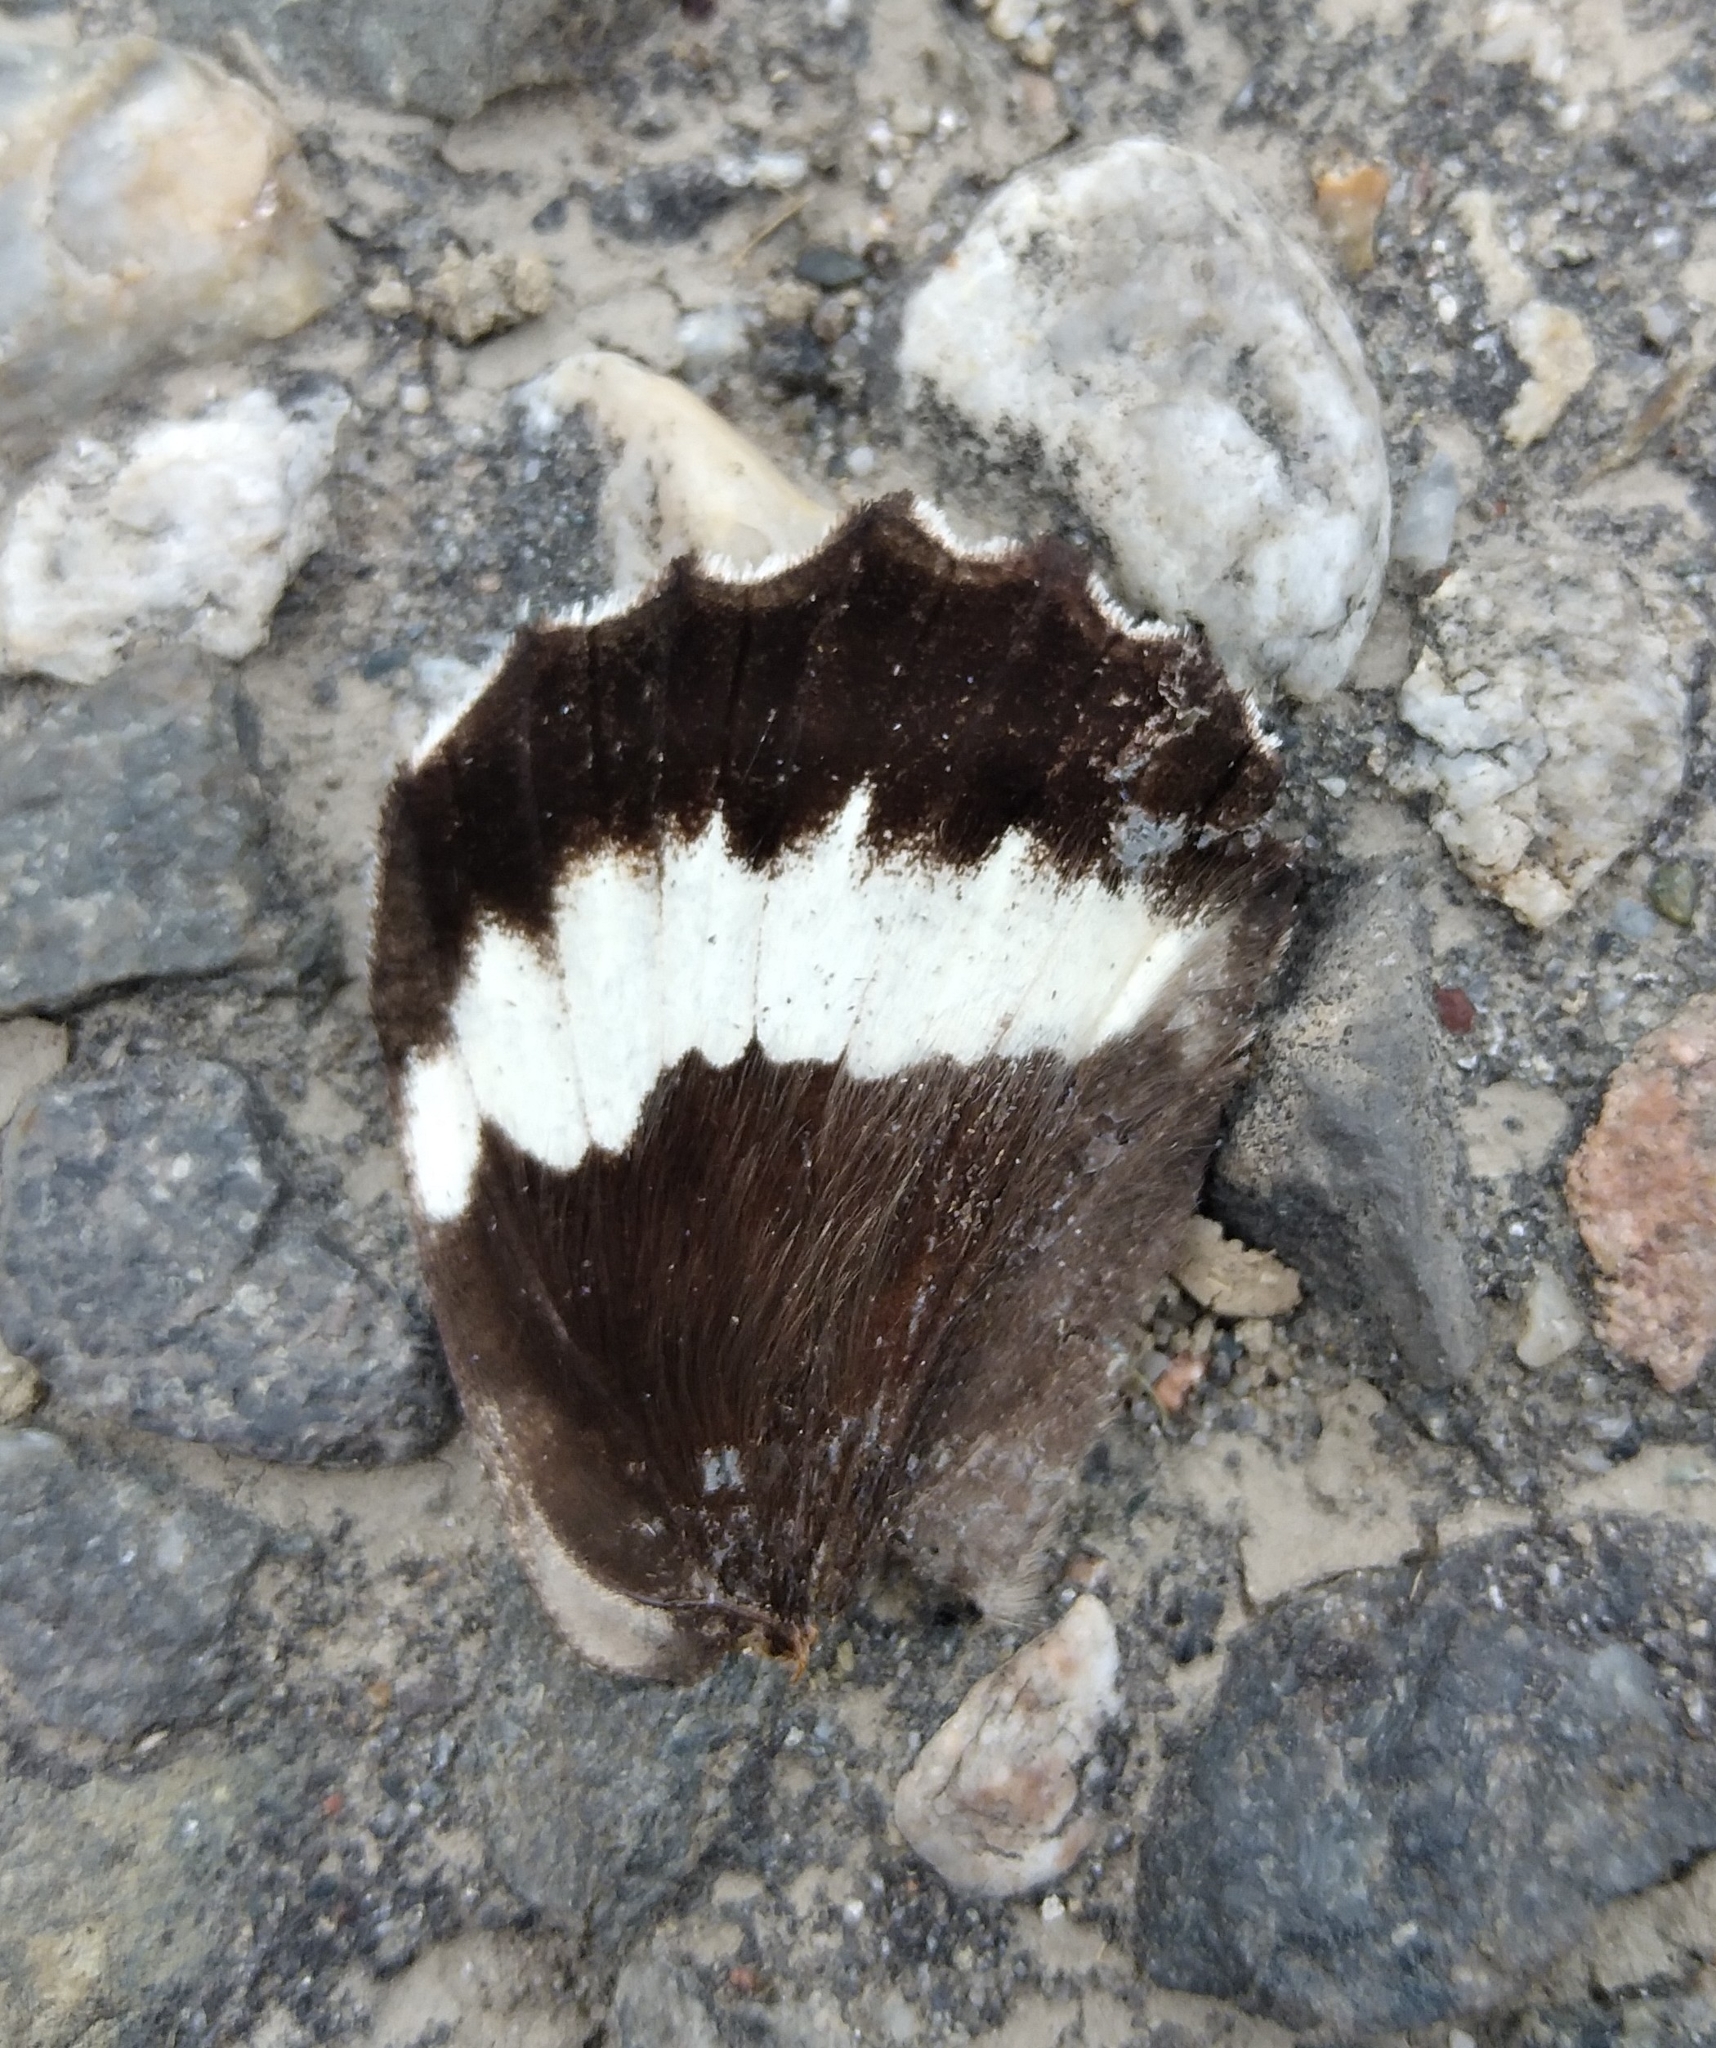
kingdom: Animalia
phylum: Arthropoda
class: Insecta
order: Lepidoptera
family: Lycaenidae
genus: Loweia
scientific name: Loweia tityrus
